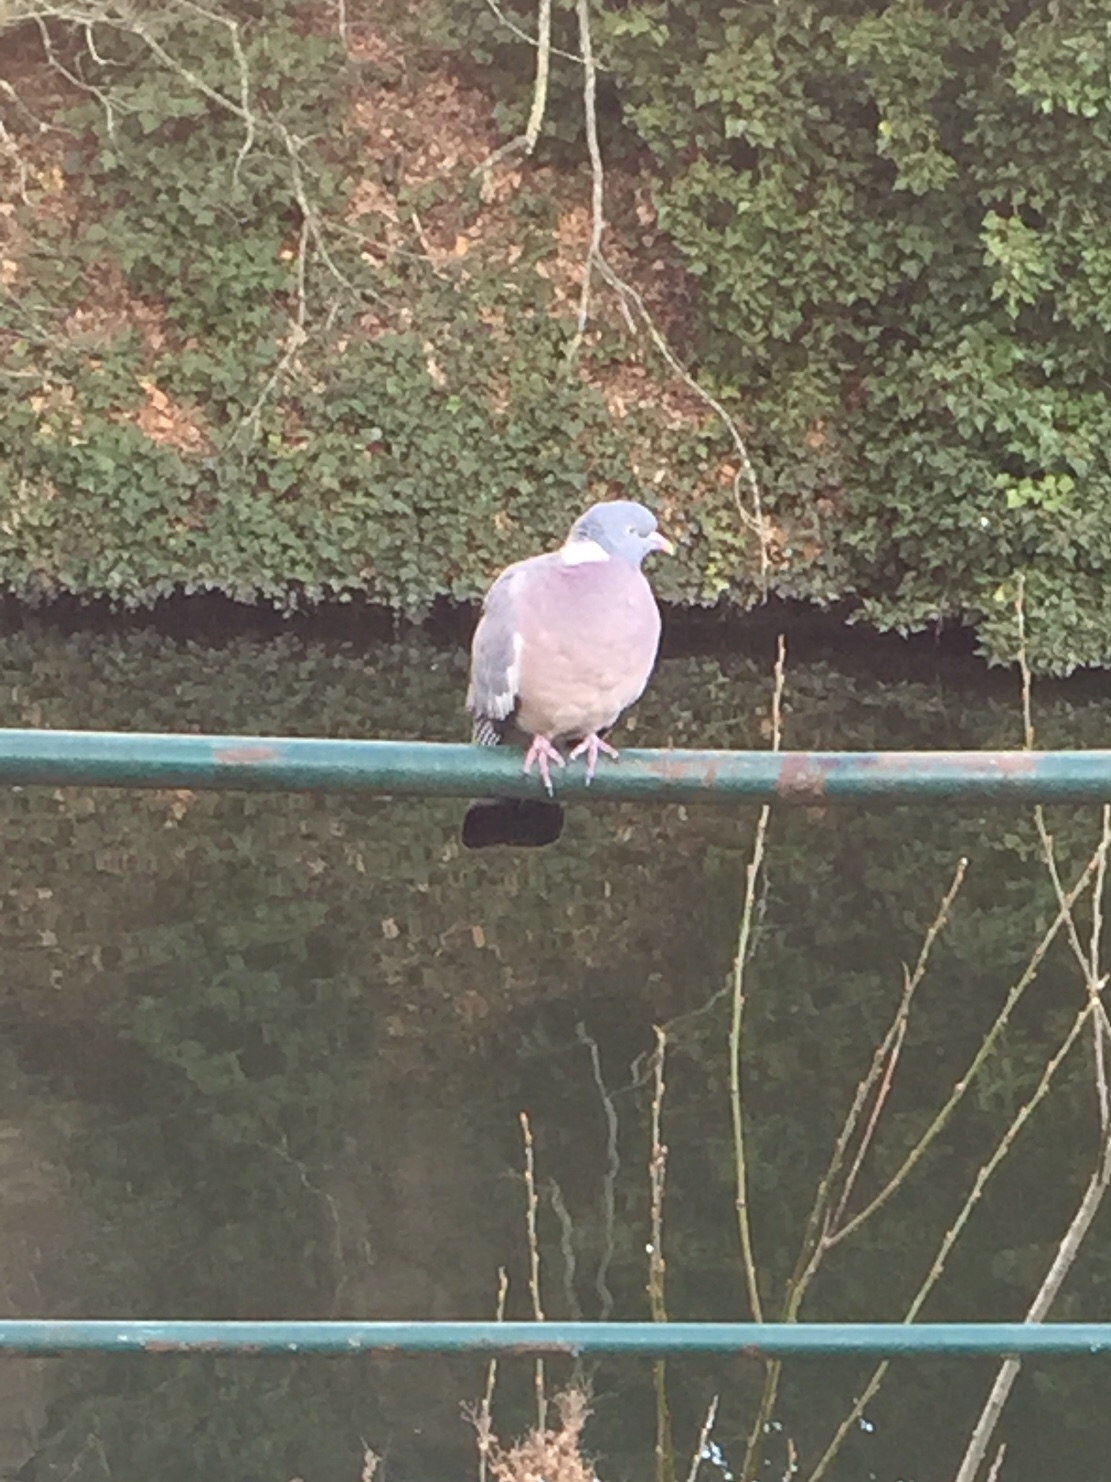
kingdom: Animalia
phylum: Chordata
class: Aves
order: Columbiformes
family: Columbidae
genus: Columba
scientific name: Columba palumbus
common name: Common wood pigeon
